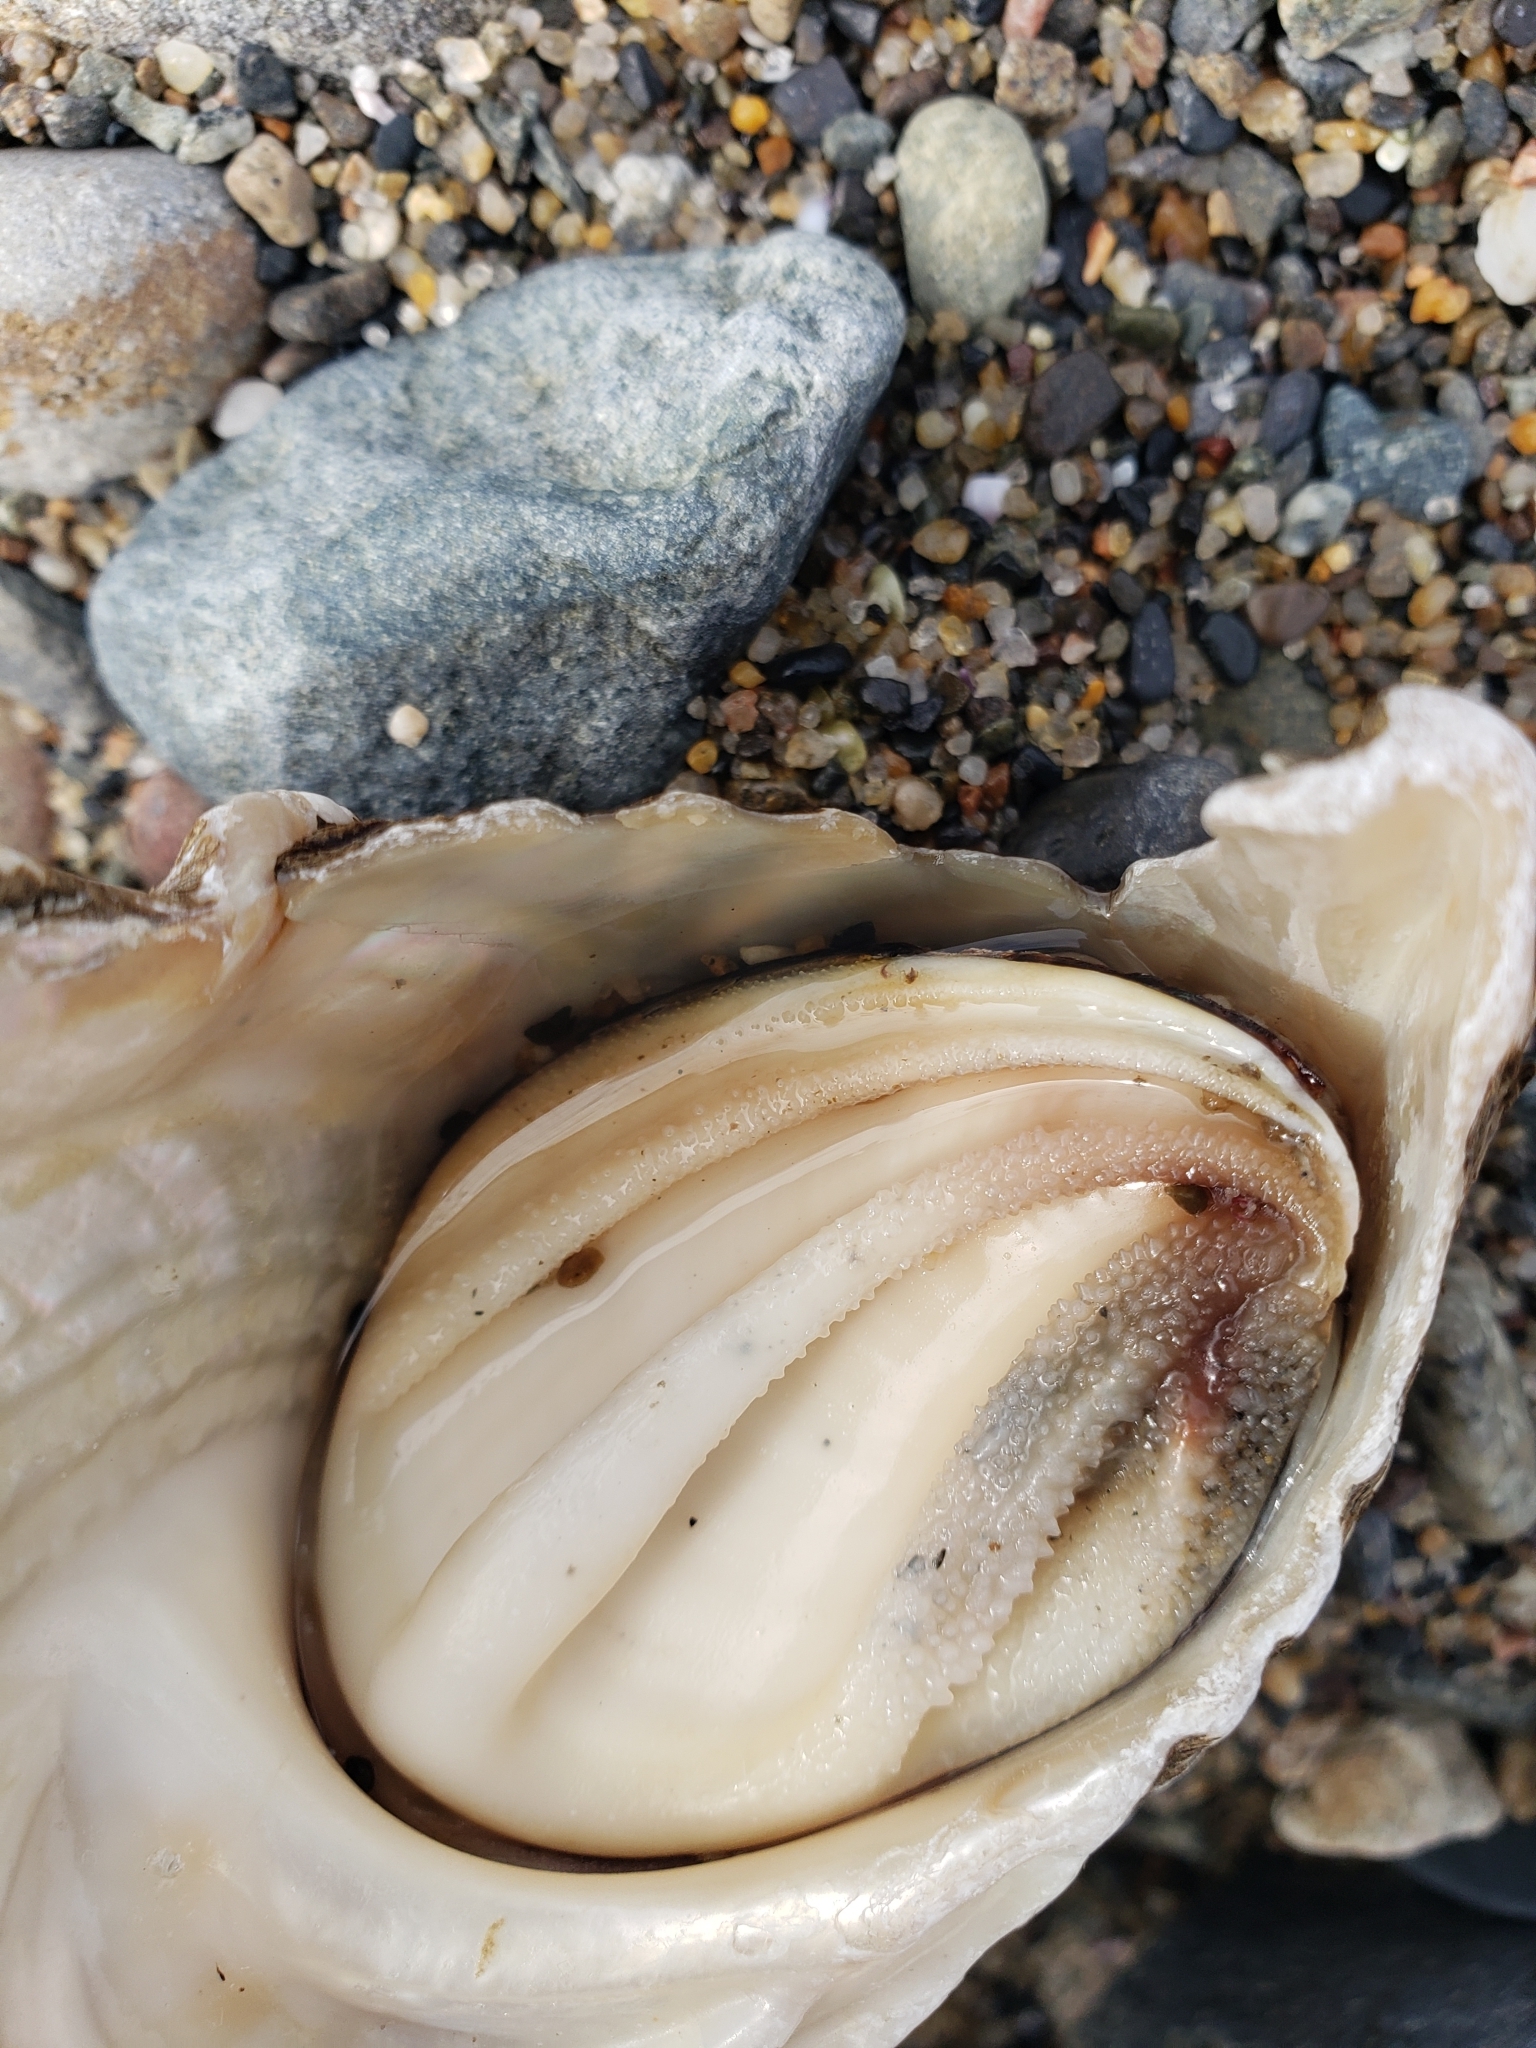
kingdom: Animalia
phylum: Mollusca
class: Gastropoda
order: Trochida
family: Turbinidae
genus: Megastraea
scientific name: Megastraea undosa
